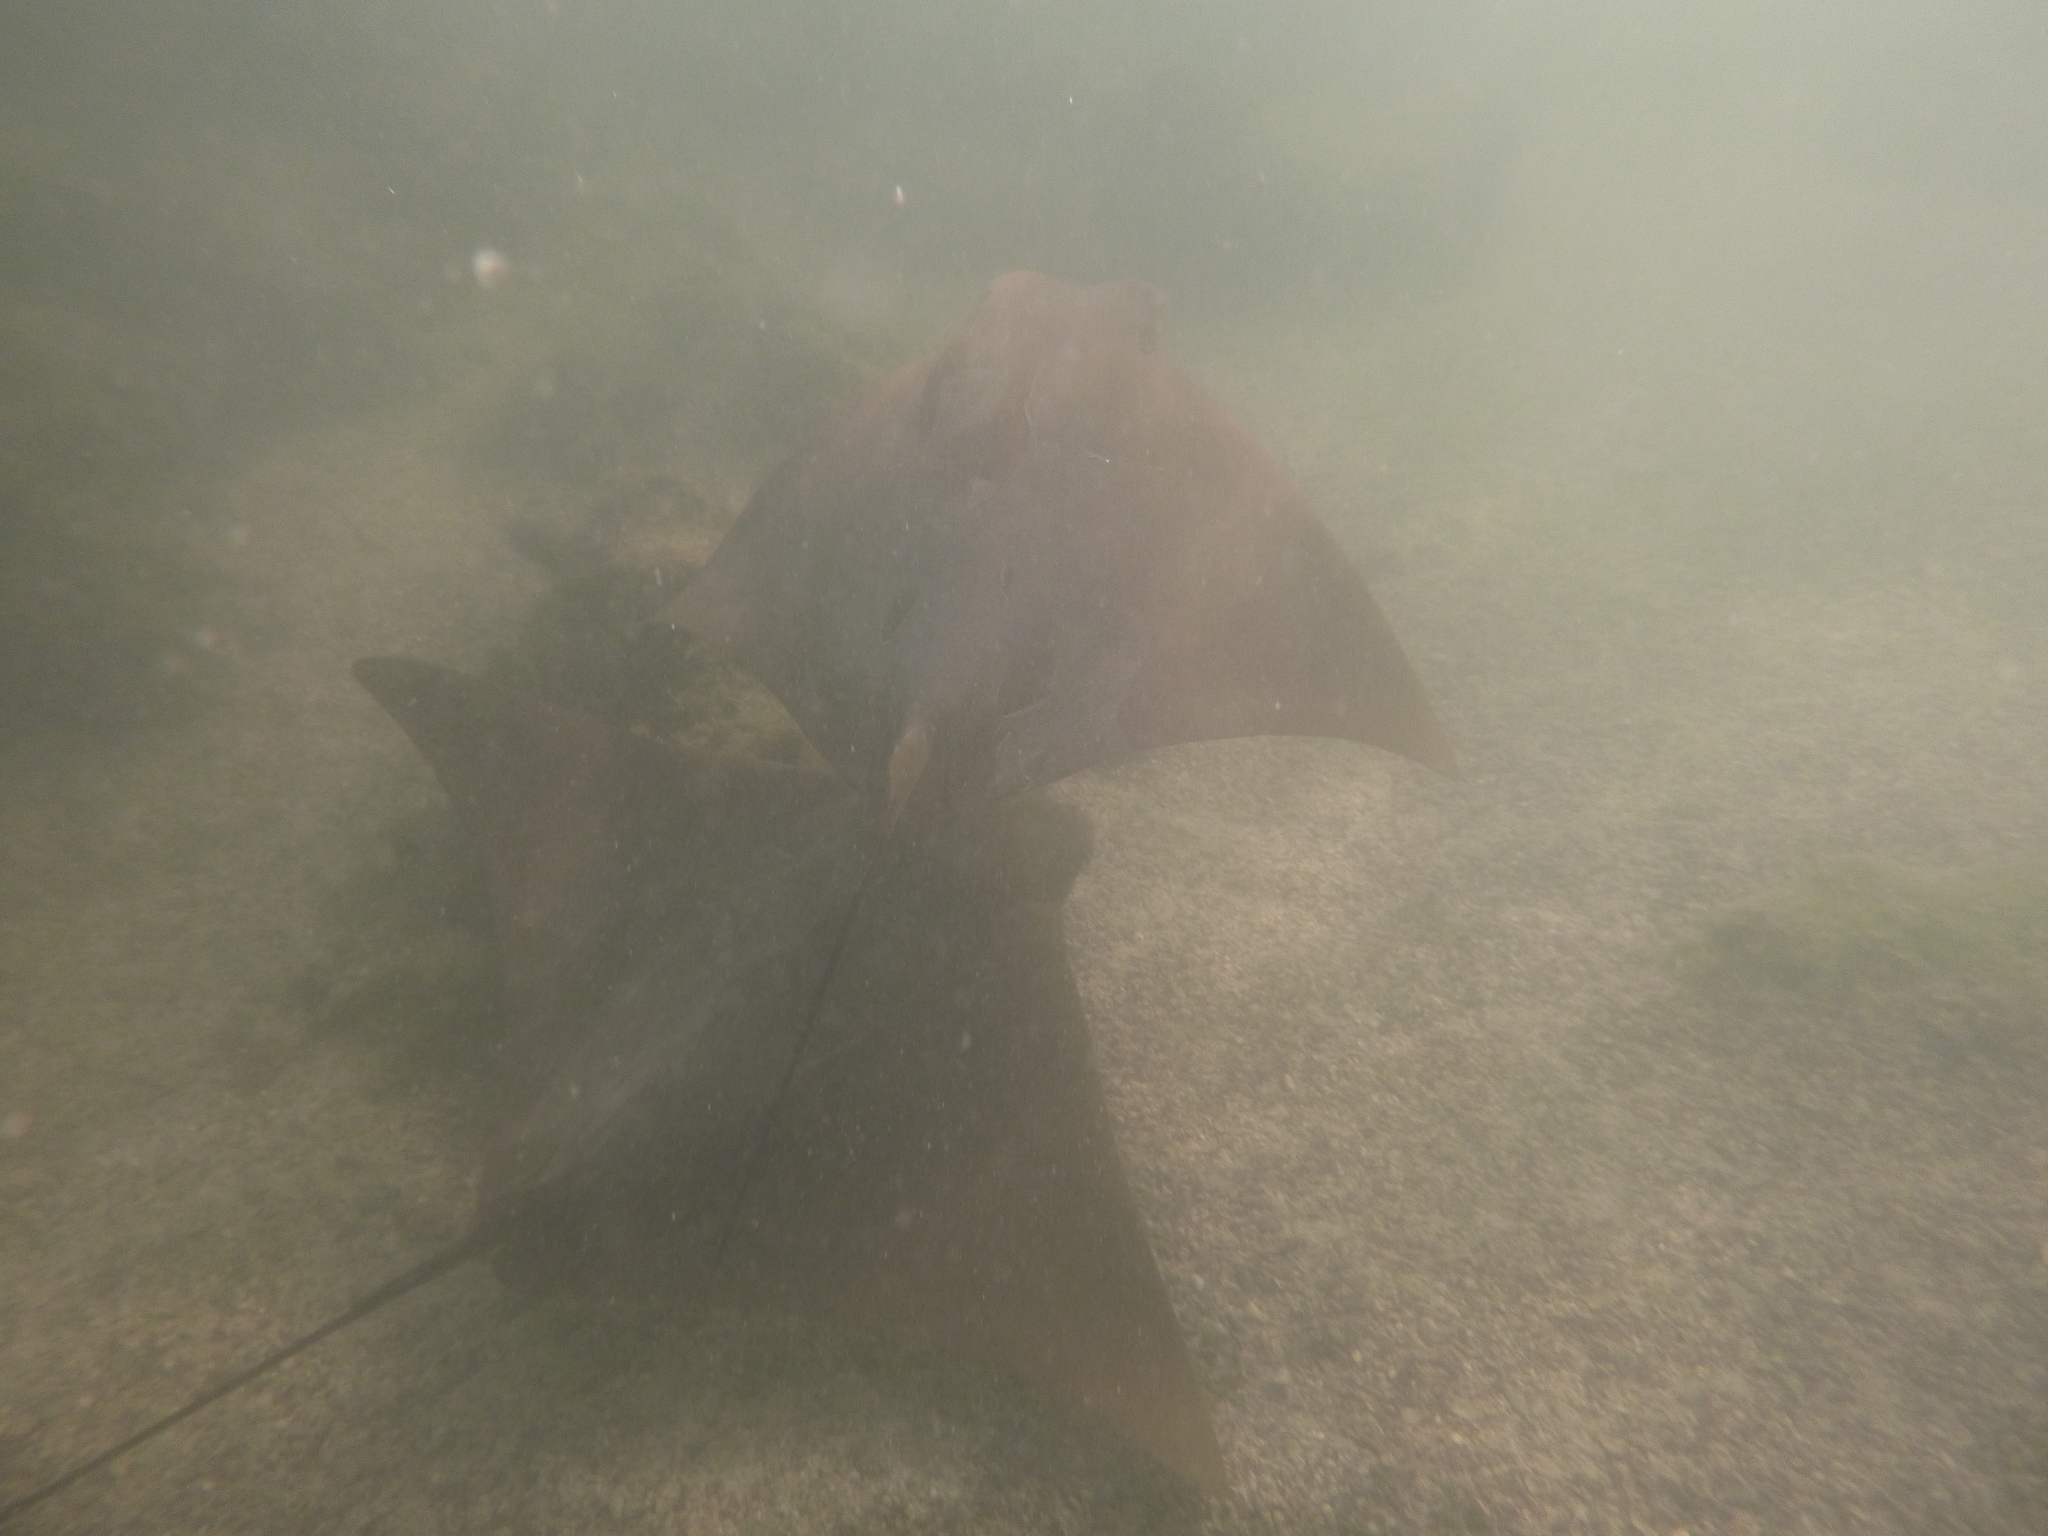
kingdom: Animalia
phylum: Chordata
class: Elasmobranchii
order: Myliobatiformes
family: Myliobatidae
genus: Rhinoptera
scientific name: Rhinoptera steindachneri
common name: Golden cownose ray
